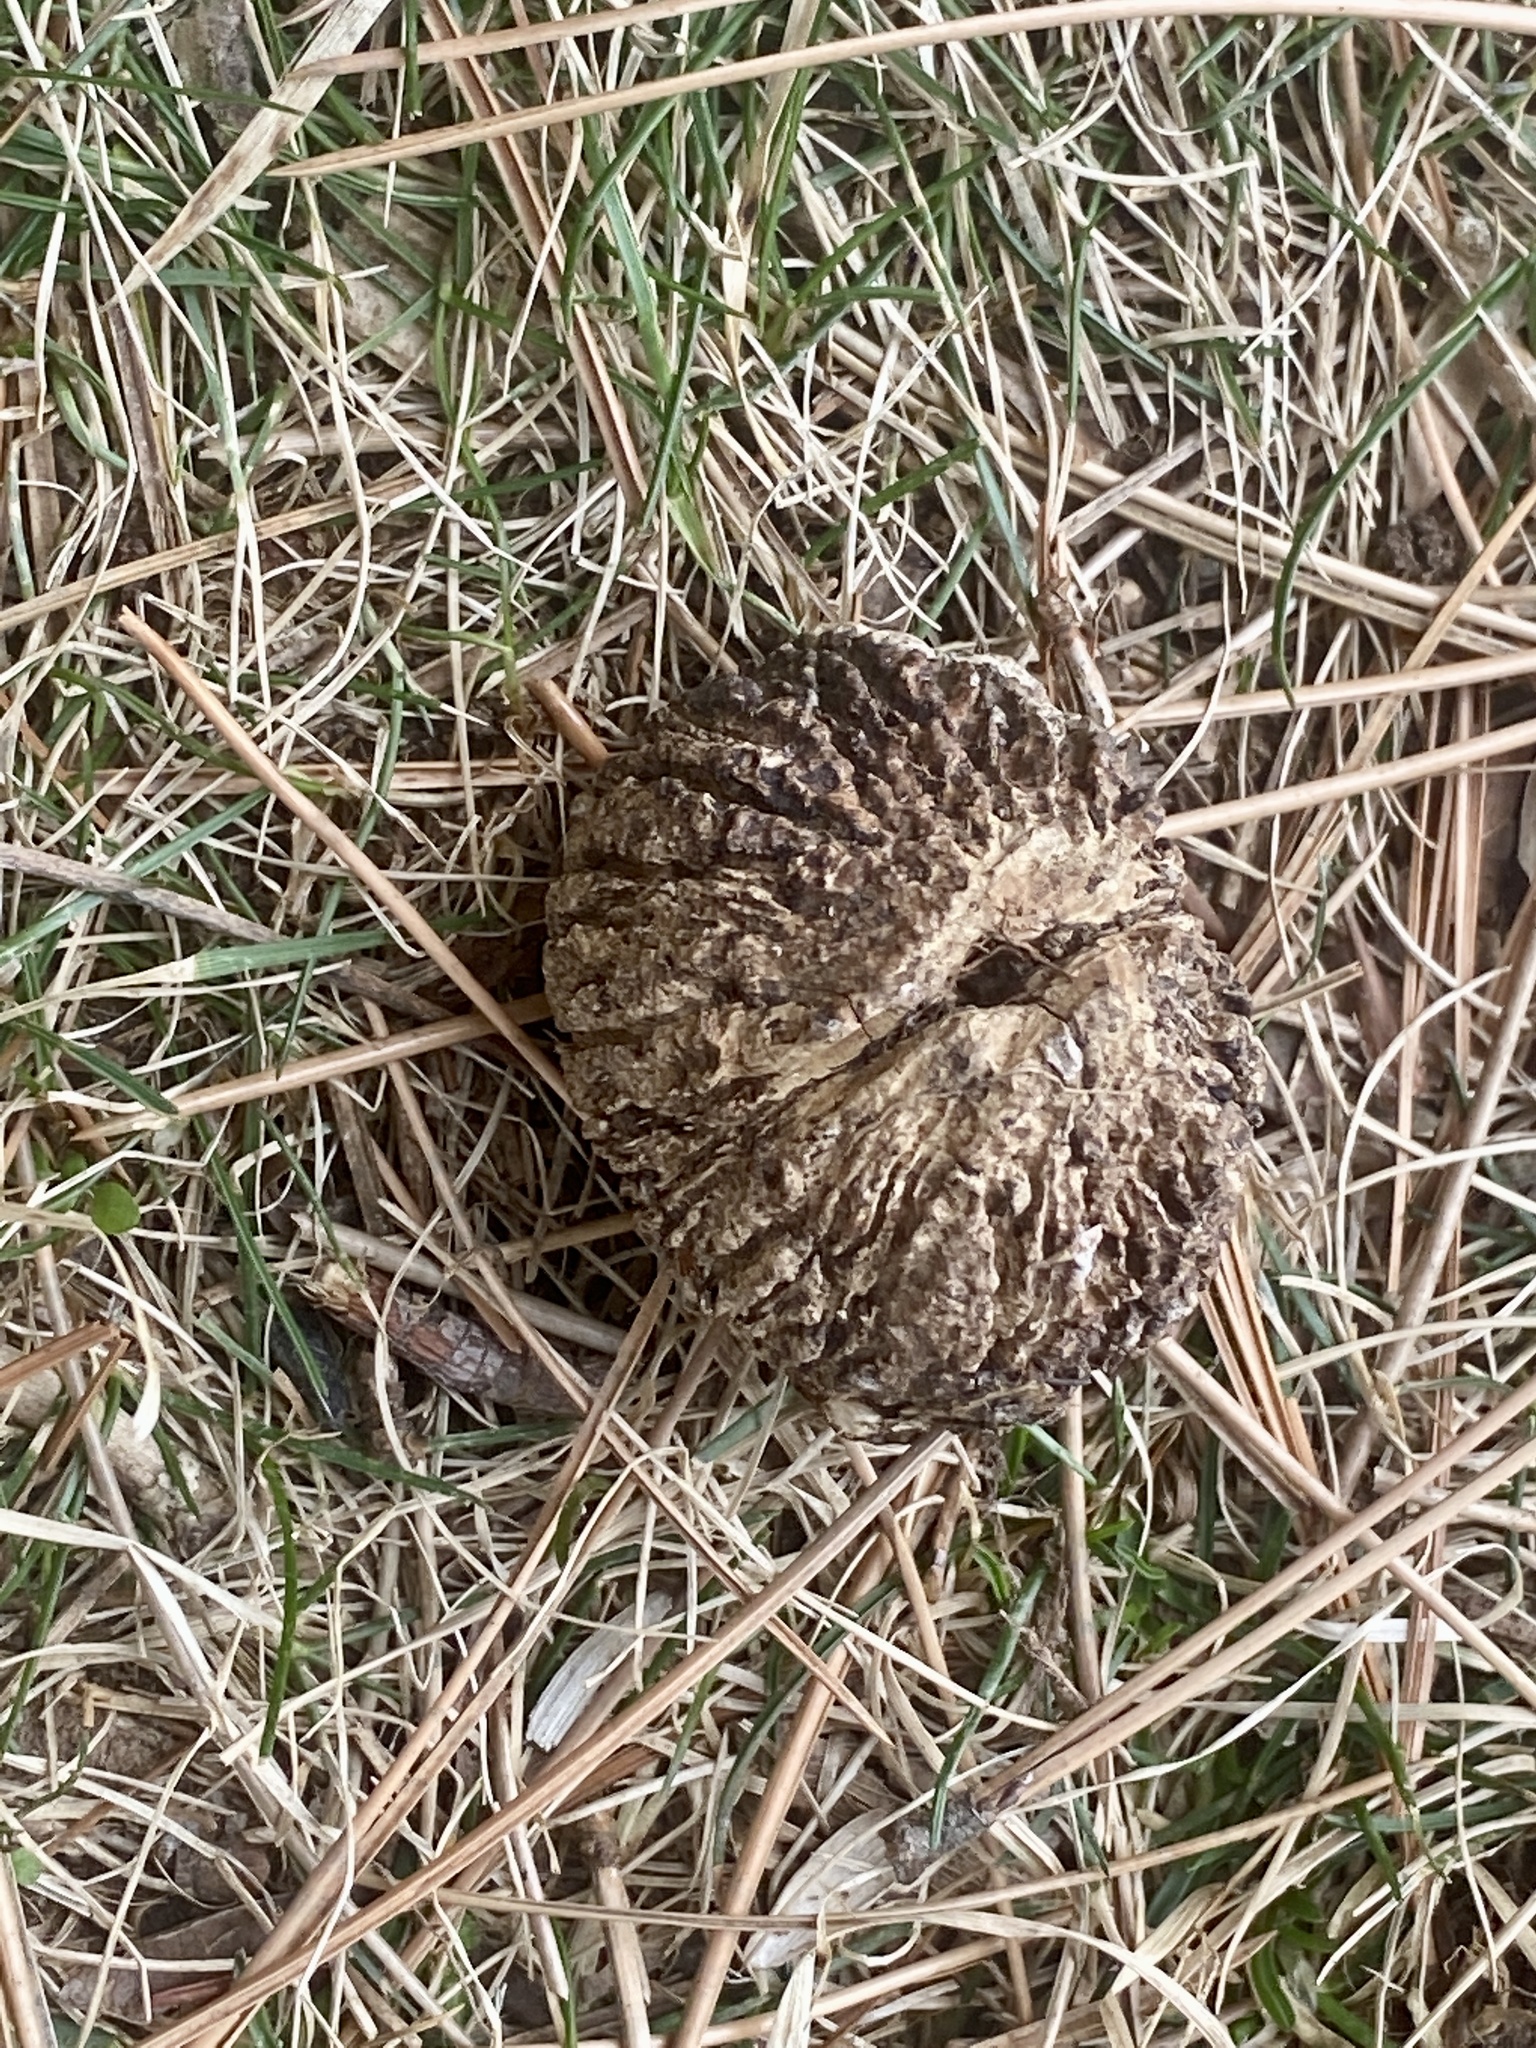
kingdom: Plantae
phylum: Tracheophyta
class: Magnoliopsida
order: Fagales
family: Juglandaceae
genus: Juglans
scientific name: Juglans nigra
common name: Black walnut
